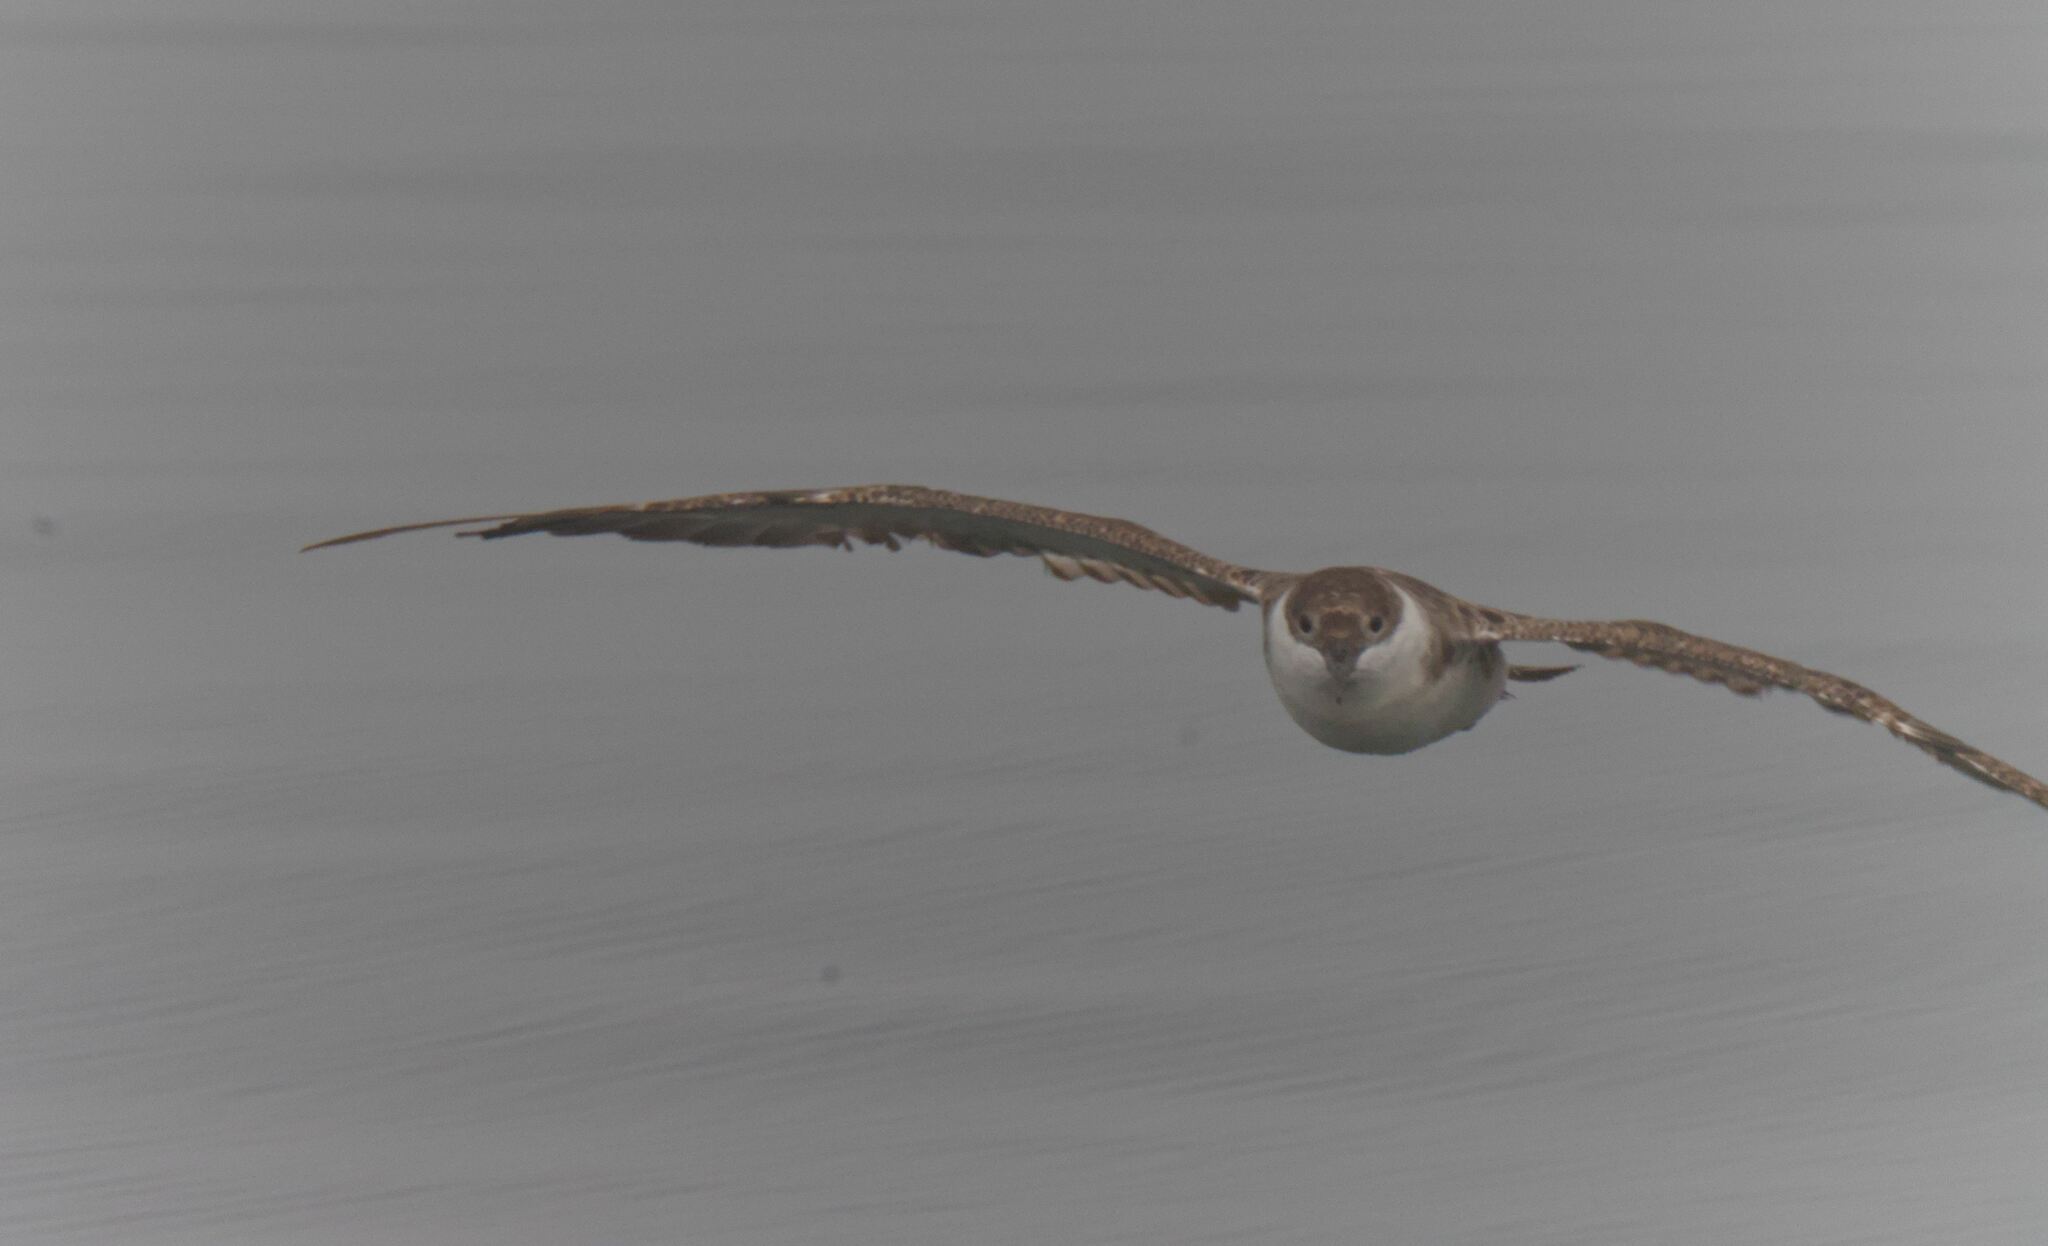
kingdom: Animalia
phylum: Chordata
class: Aves
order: Procellariiformes
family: Procellariidae
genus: Puffinus
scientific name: Puffinus gravis
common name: Great shearwater
